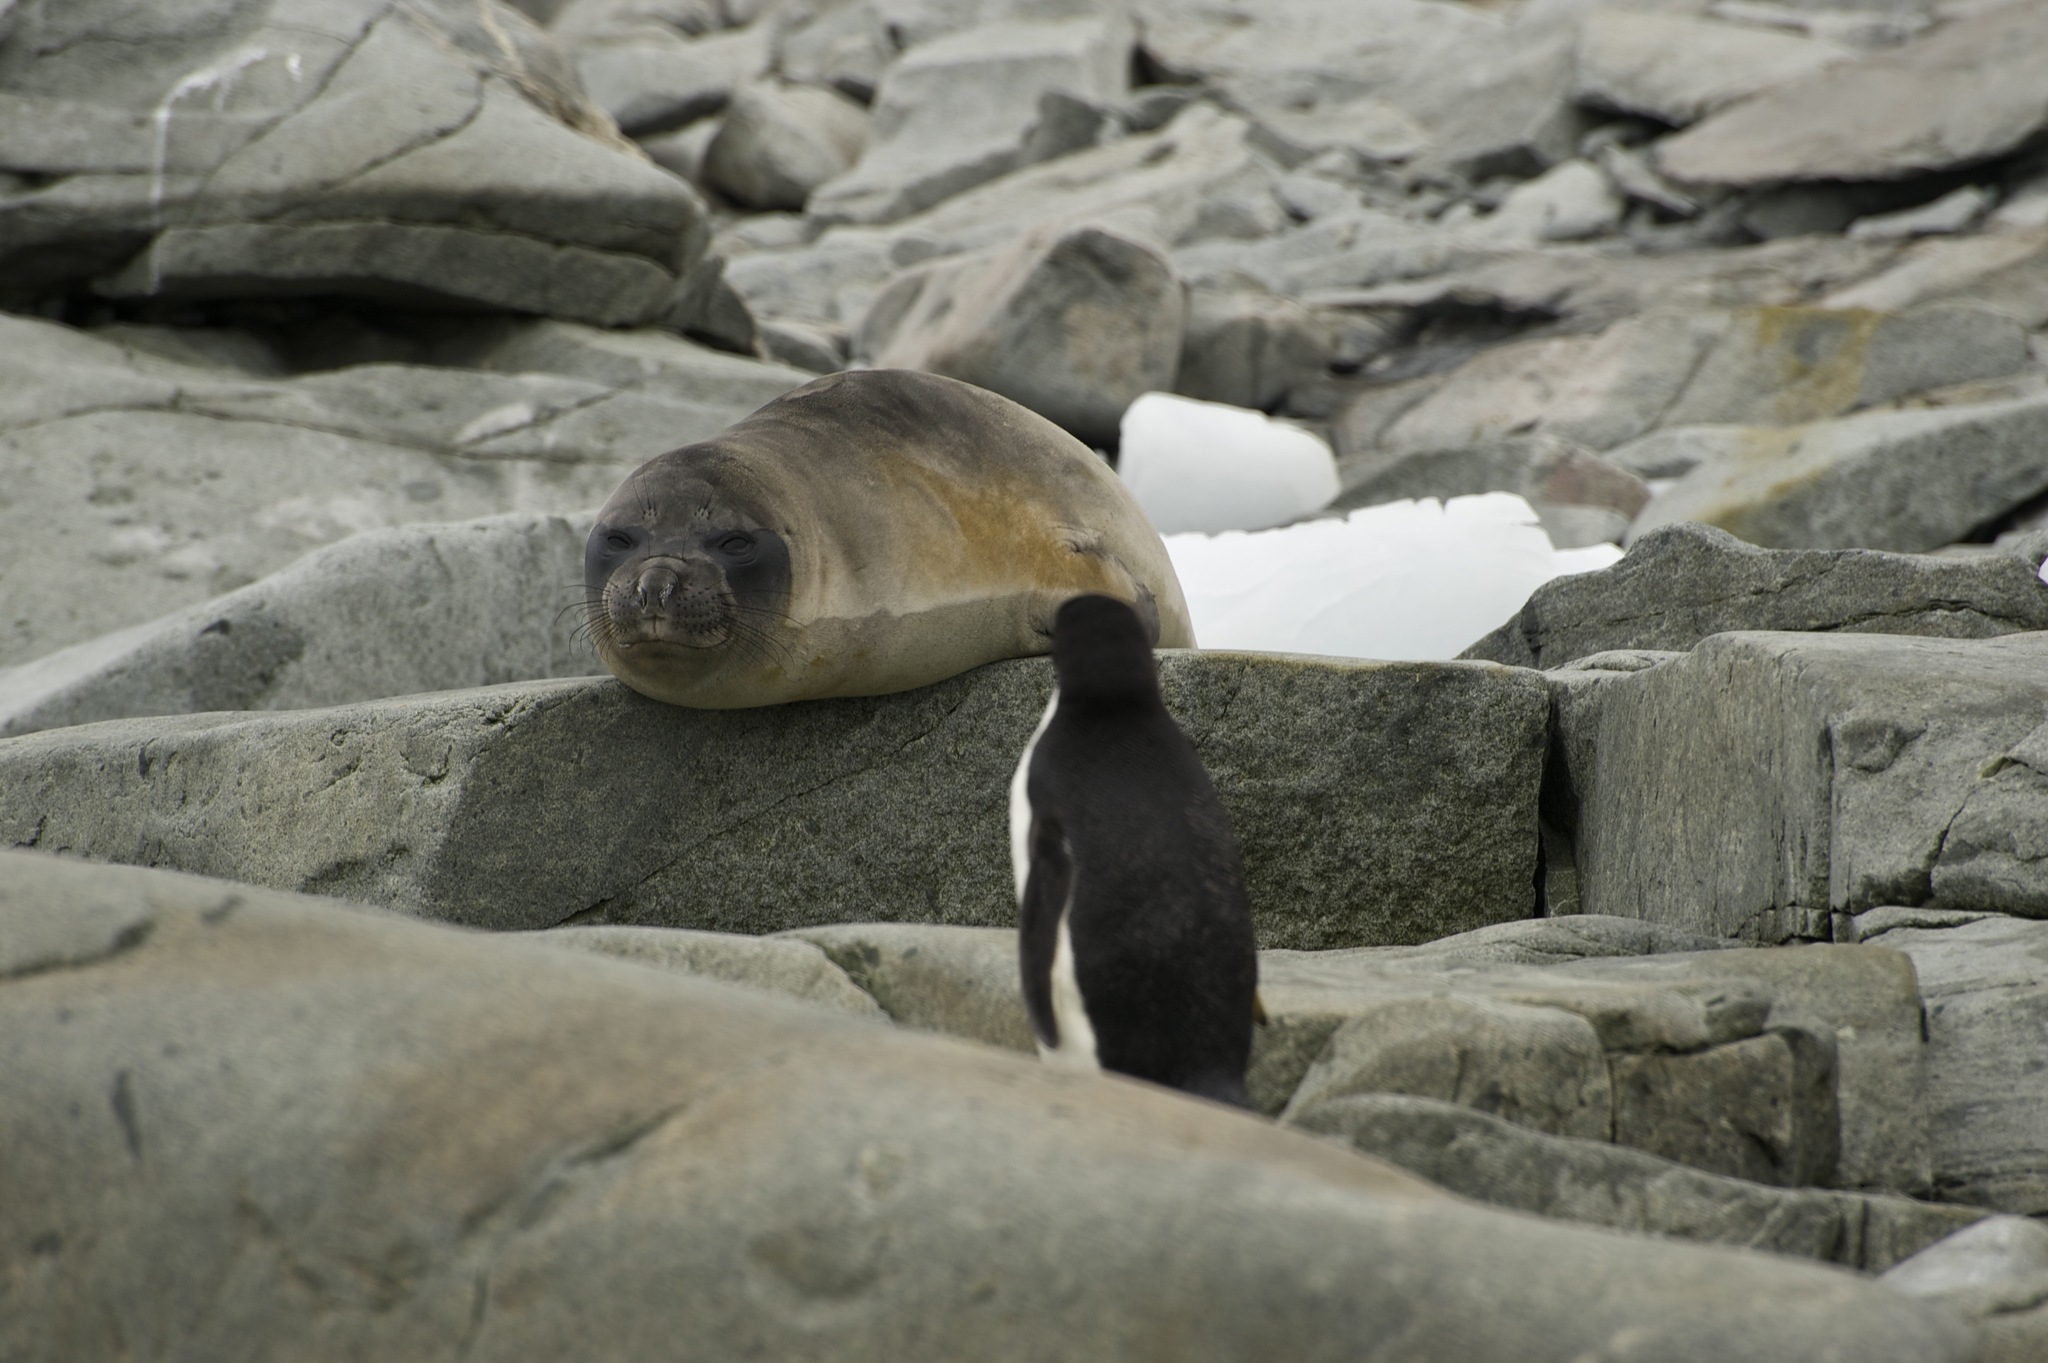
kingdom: Animalia
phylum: Chordata
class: Mammalia
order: Carnivora
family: Phocidae
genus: Mirounga
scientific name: Mirounga leonina
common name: Southern elephant seal
